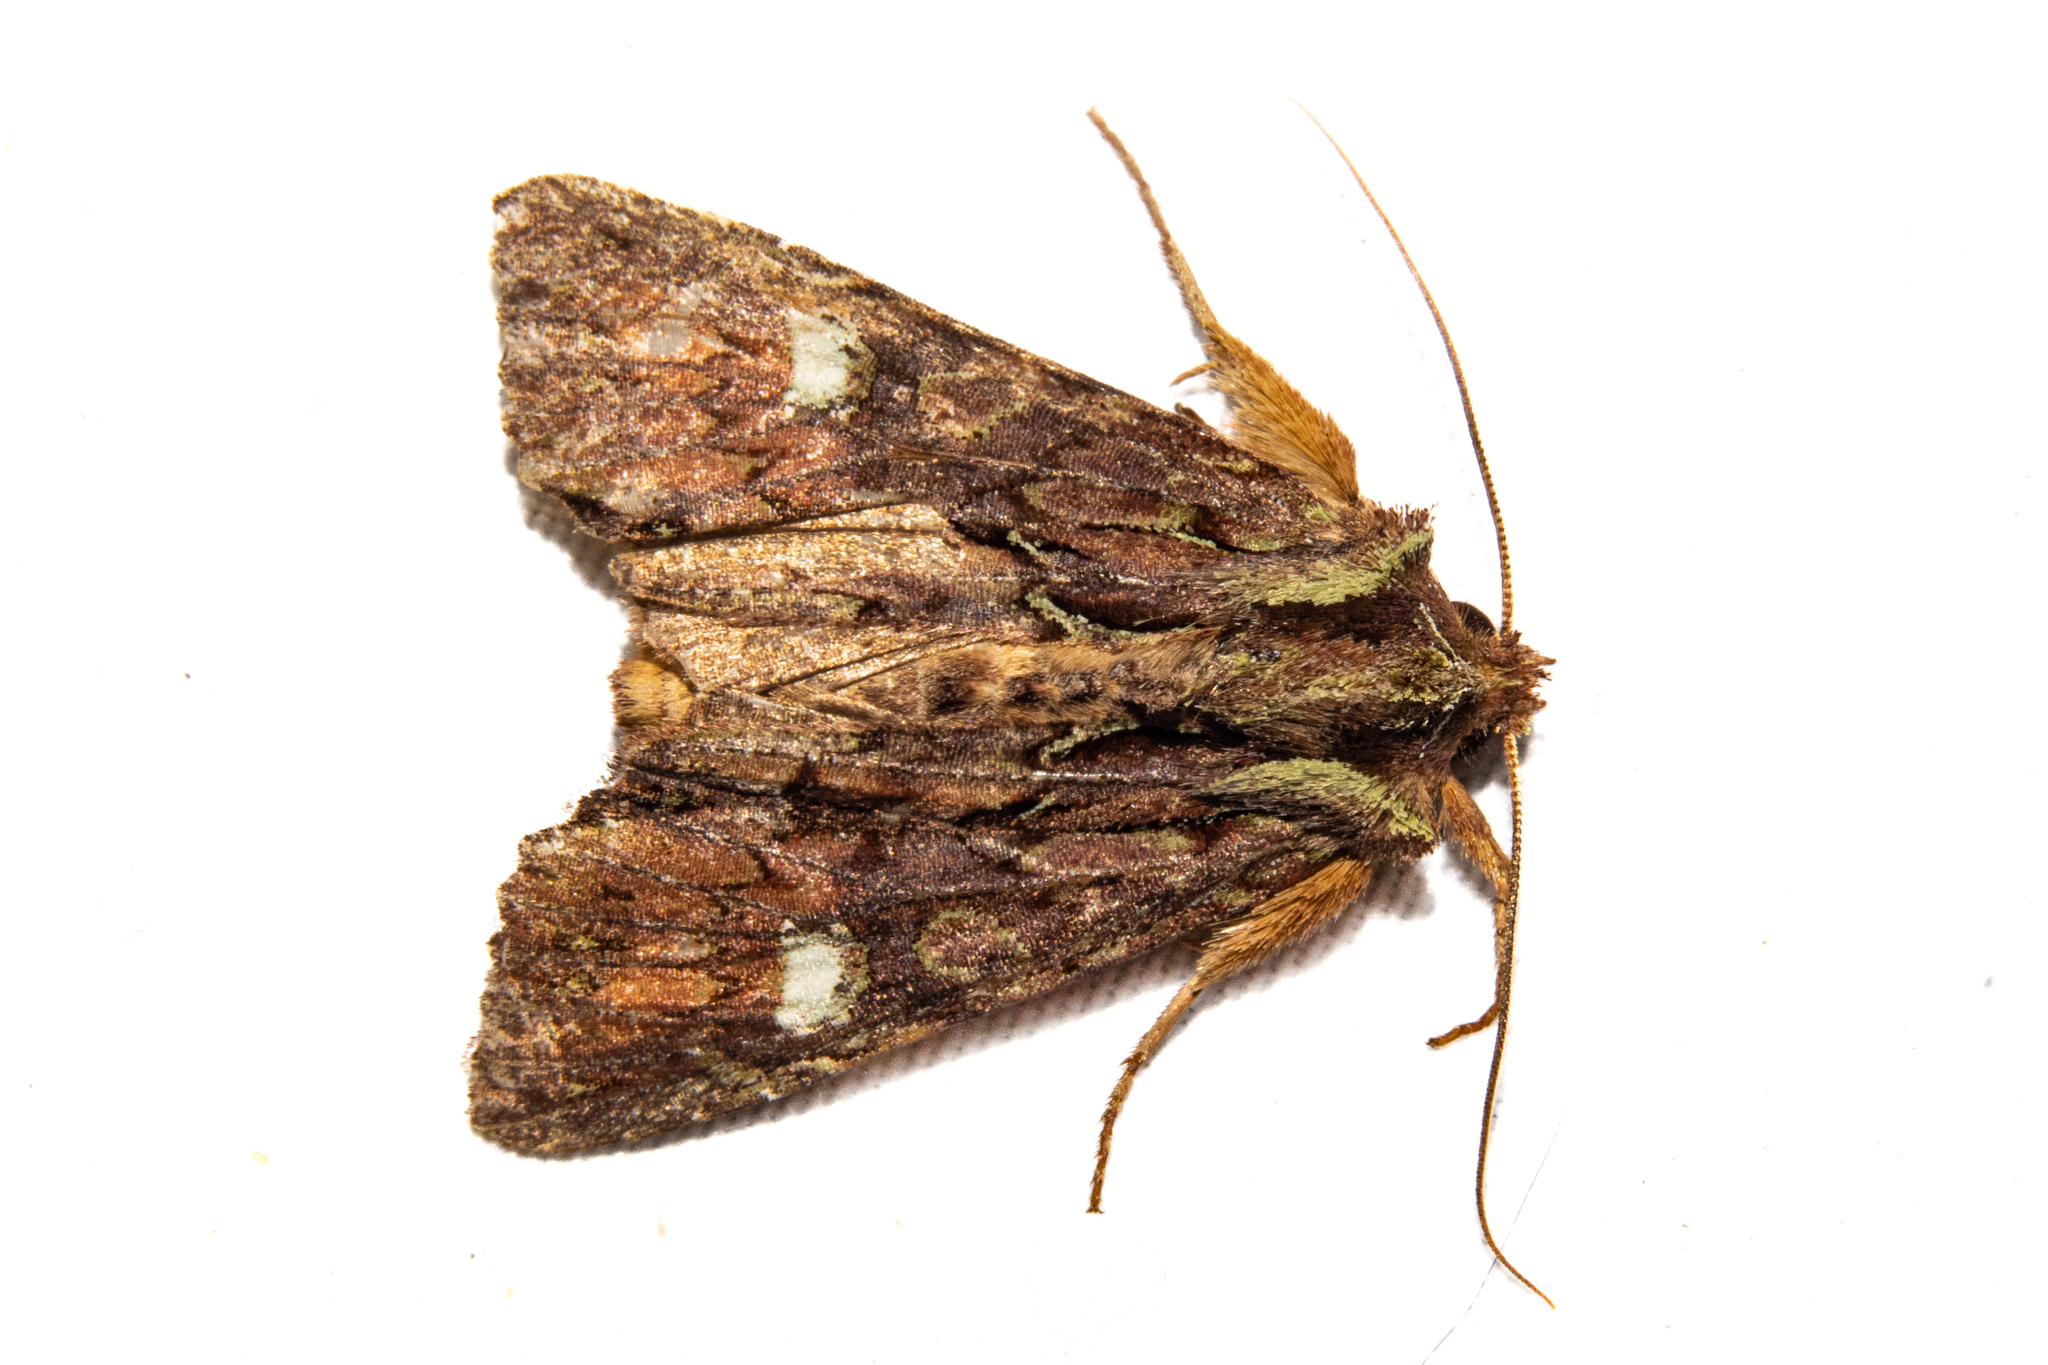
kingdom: Animalia
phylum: Arthropoda
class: Insecta
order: Lepidoptera
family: Noctuidae
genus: Meterana
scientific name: Meterana diatmeta
